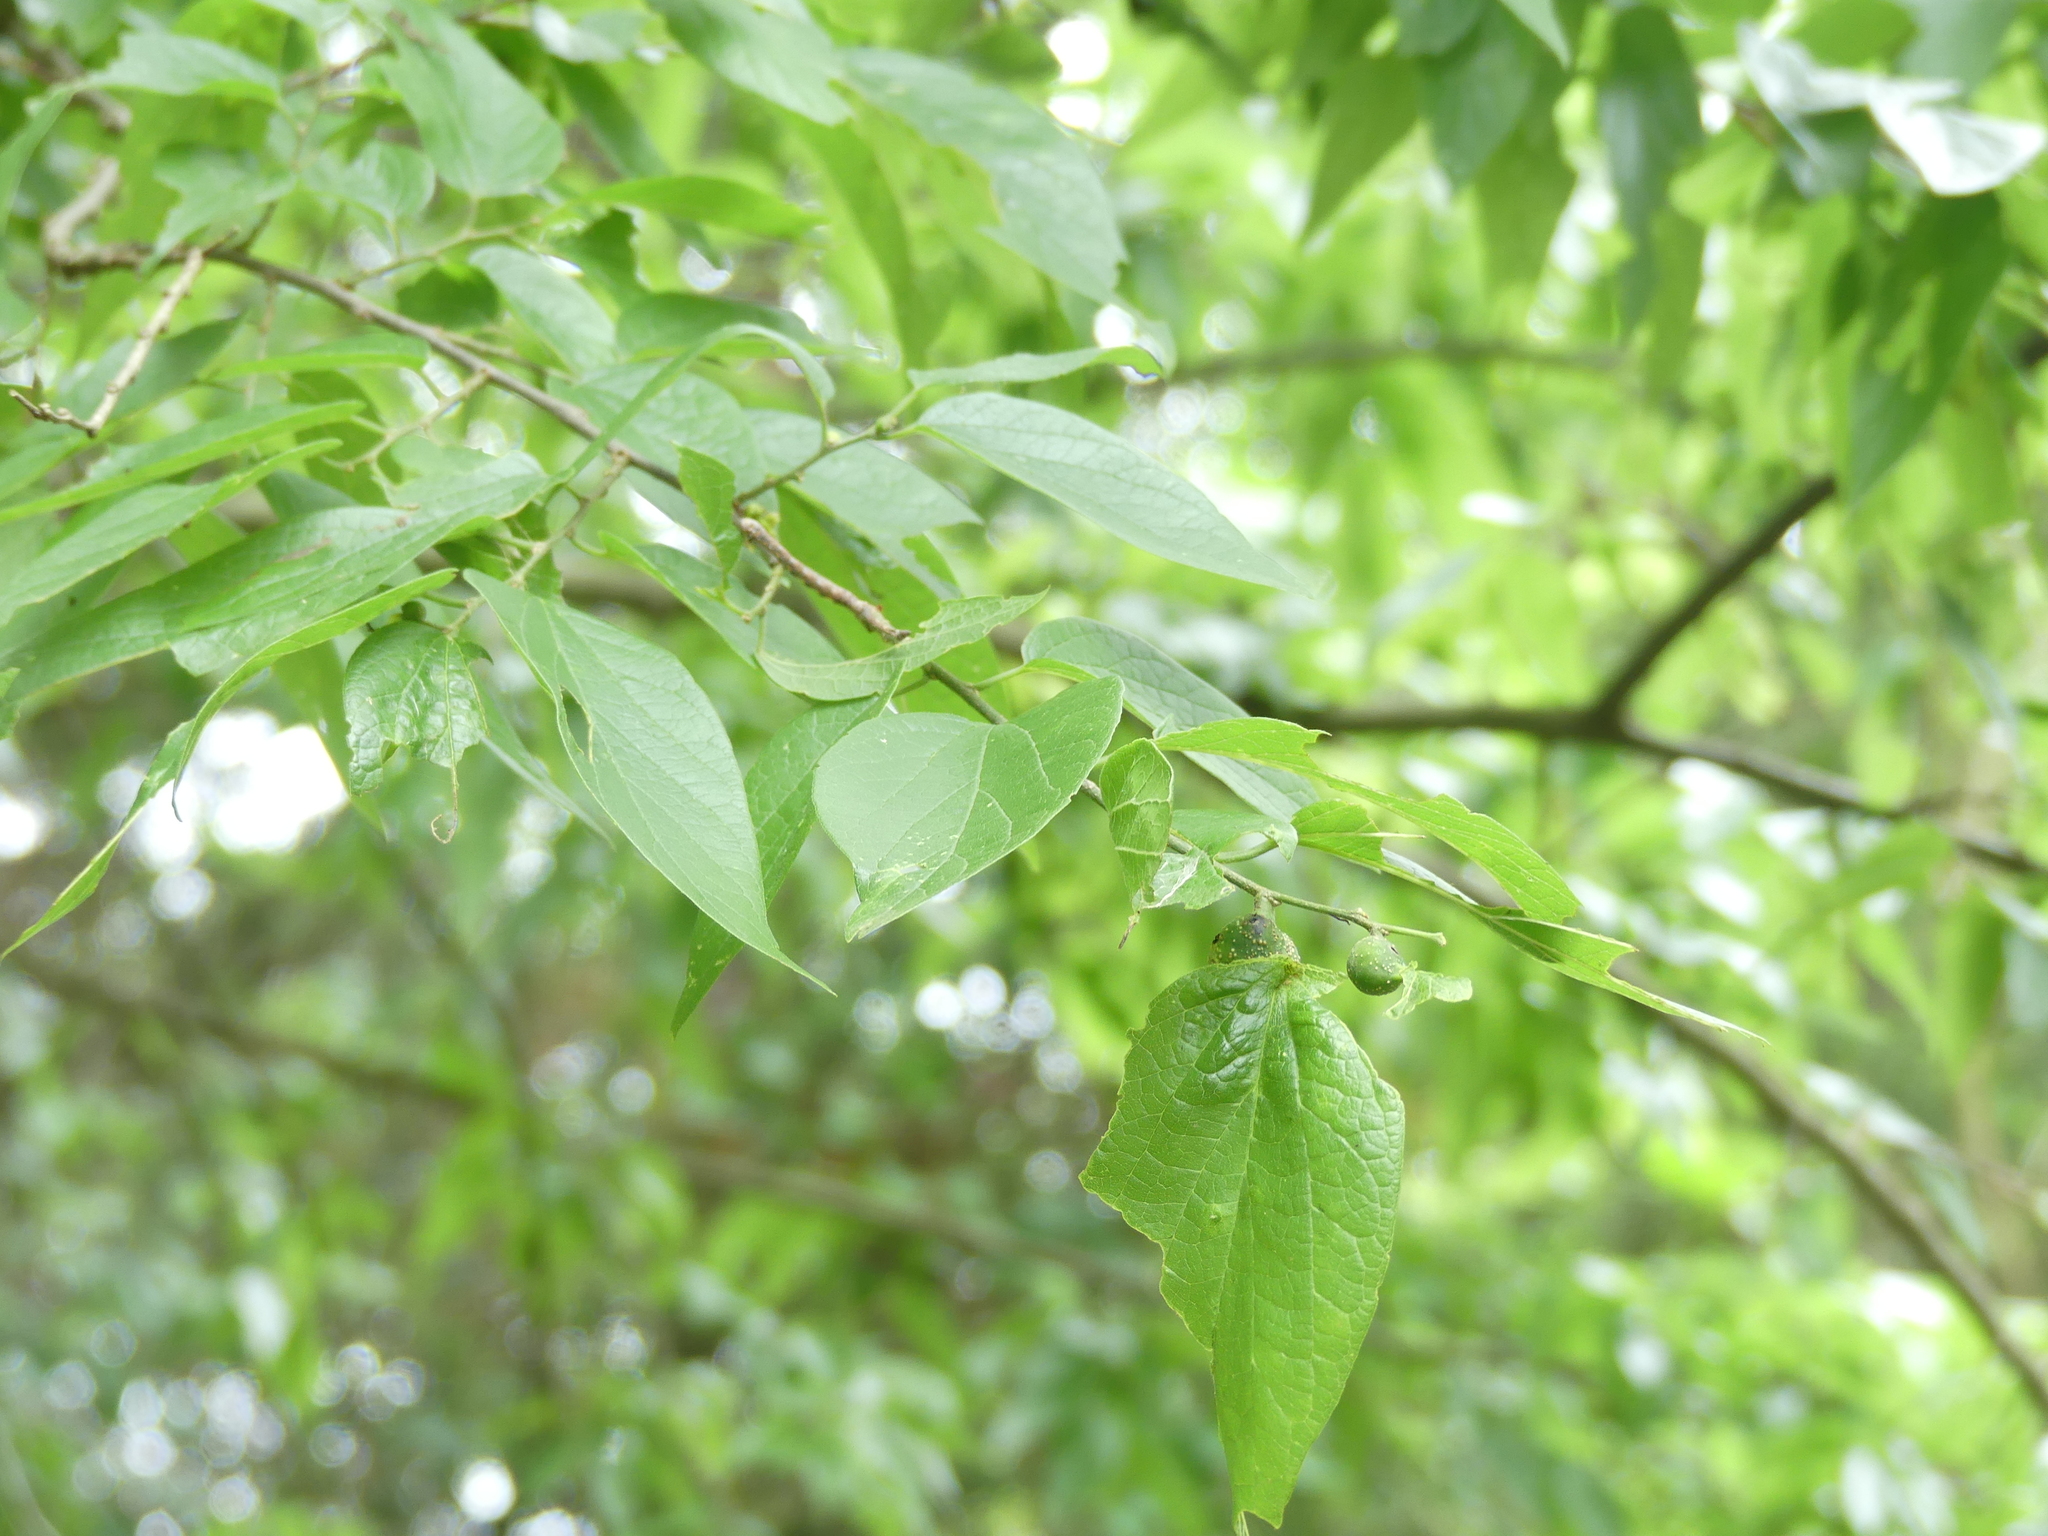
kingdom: Plantae
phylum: Tracheophyta
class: Magnoliopsida
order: Rosales
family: Cannabaceae
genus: Celtis
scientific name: Celtis laevigata
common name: Sugarberry
